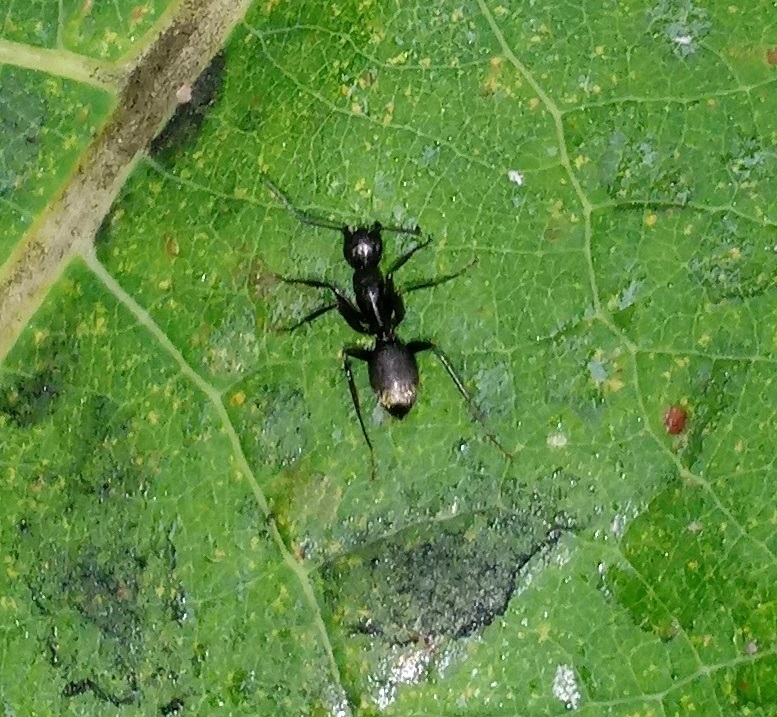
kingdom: Animalia
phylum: Arthropoda
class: Insecta
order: Hymenoptera
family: Formicidae
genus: Camponotus
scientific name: Camponotus pennsylvanicus
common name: Black carpenter ant
